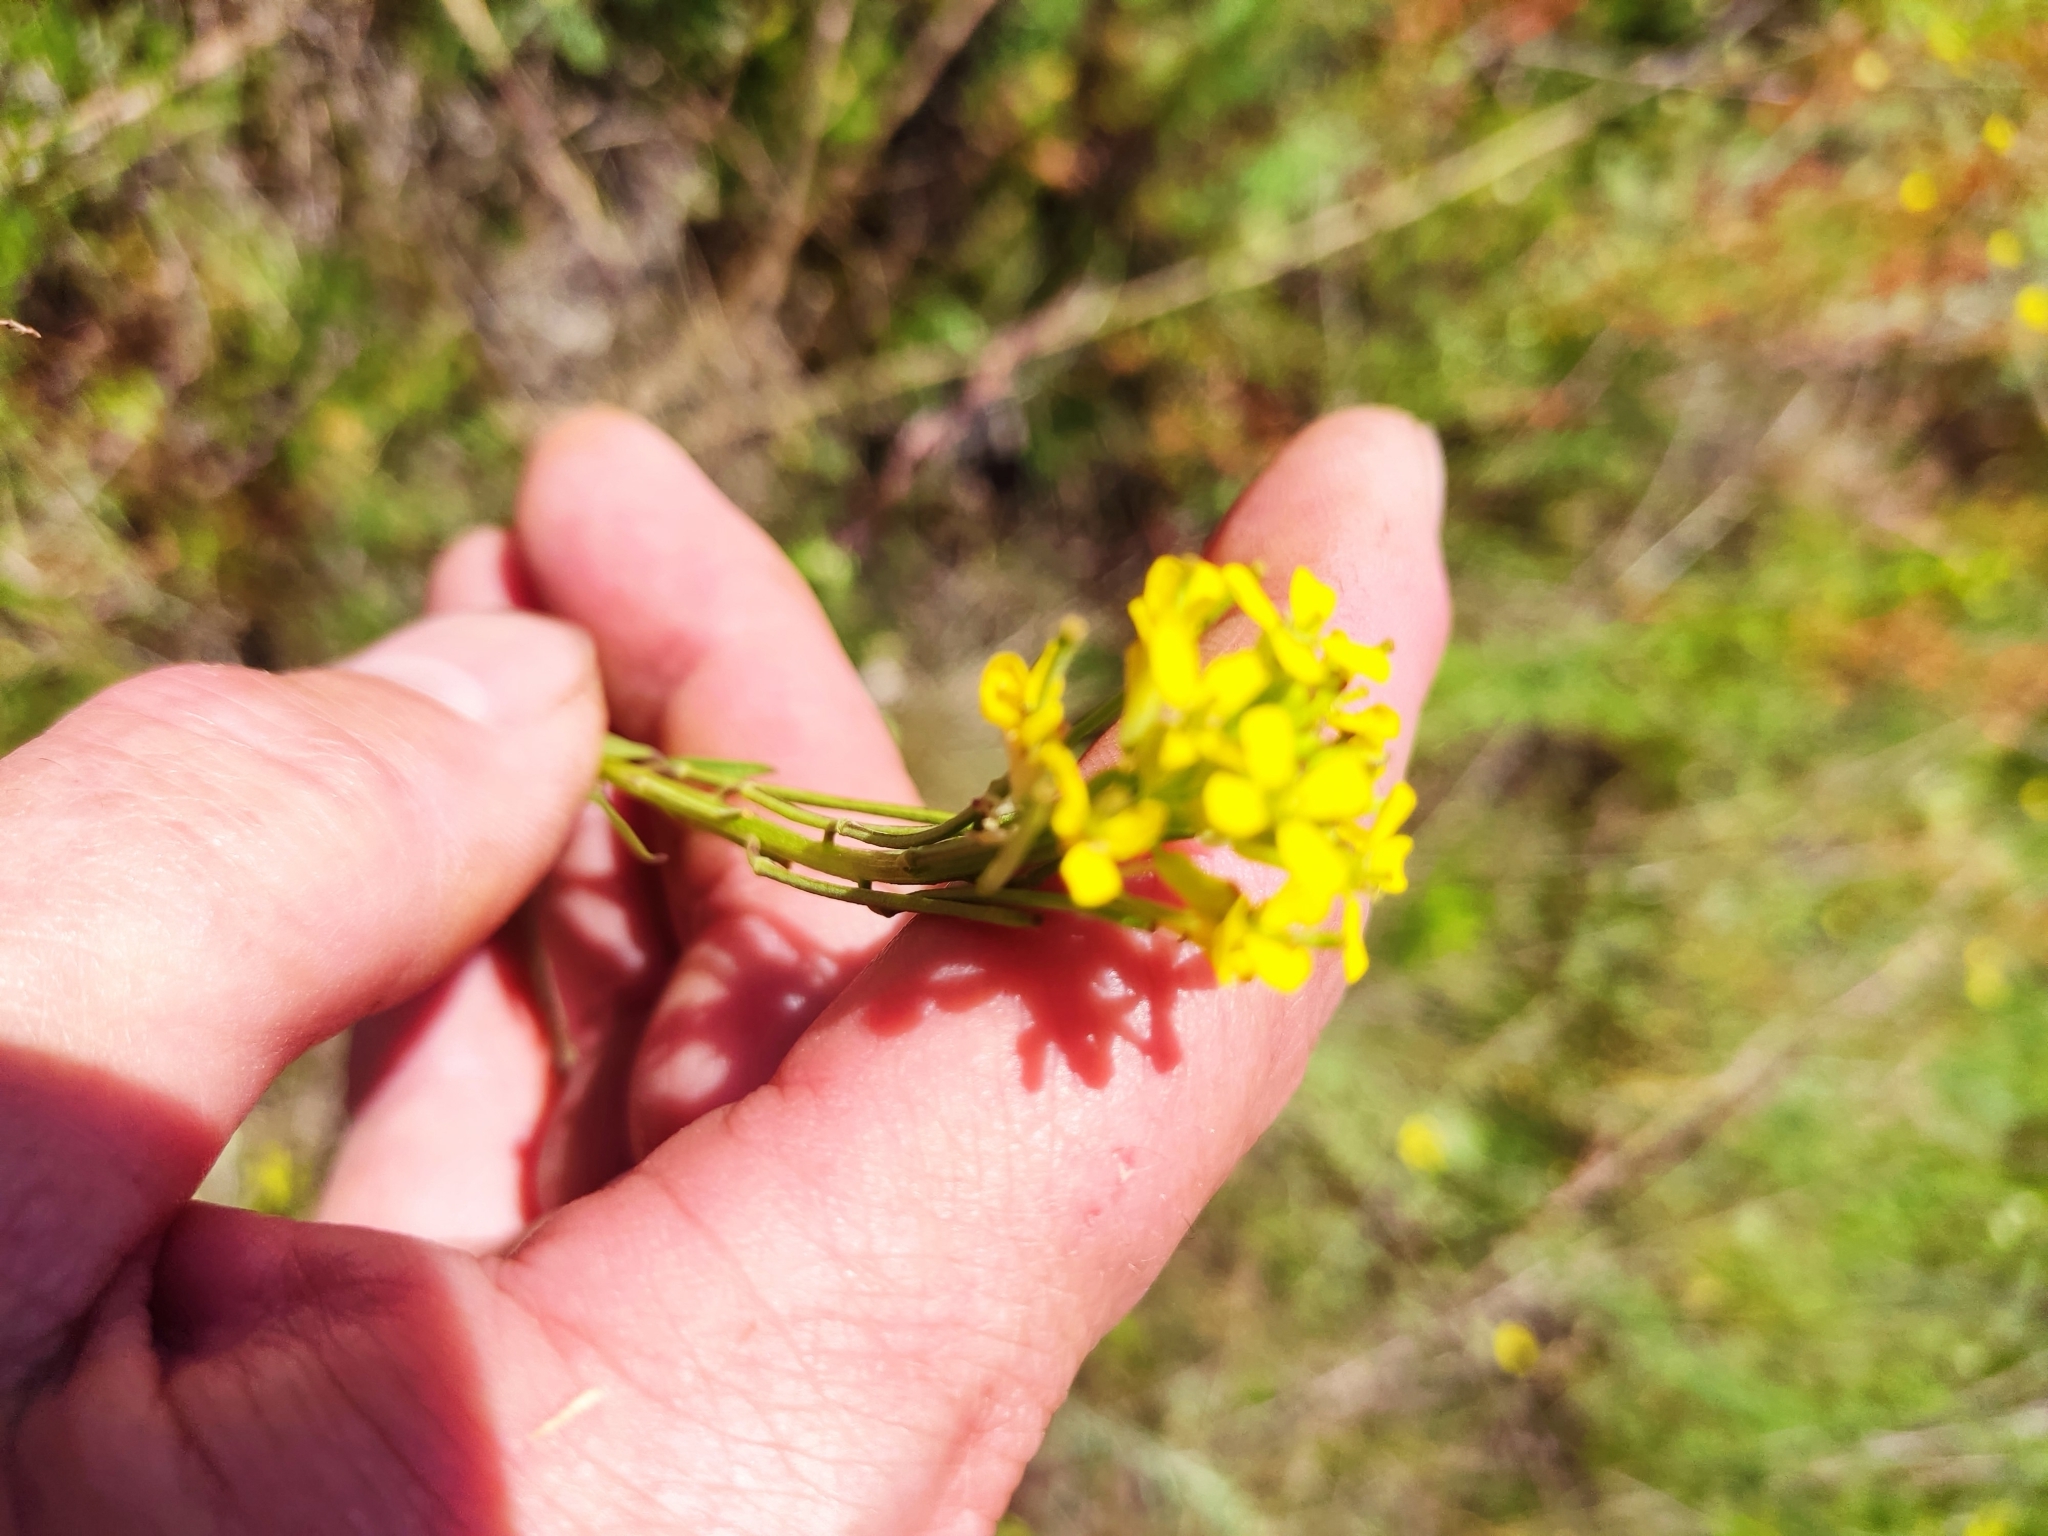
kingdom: Plantae
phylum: Tracheophyta
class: Magnoliopsida
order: Brassicales
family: Brassicaceae
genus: Erysimum
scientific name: Erysimum hieraciifolium
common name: European wallflower
